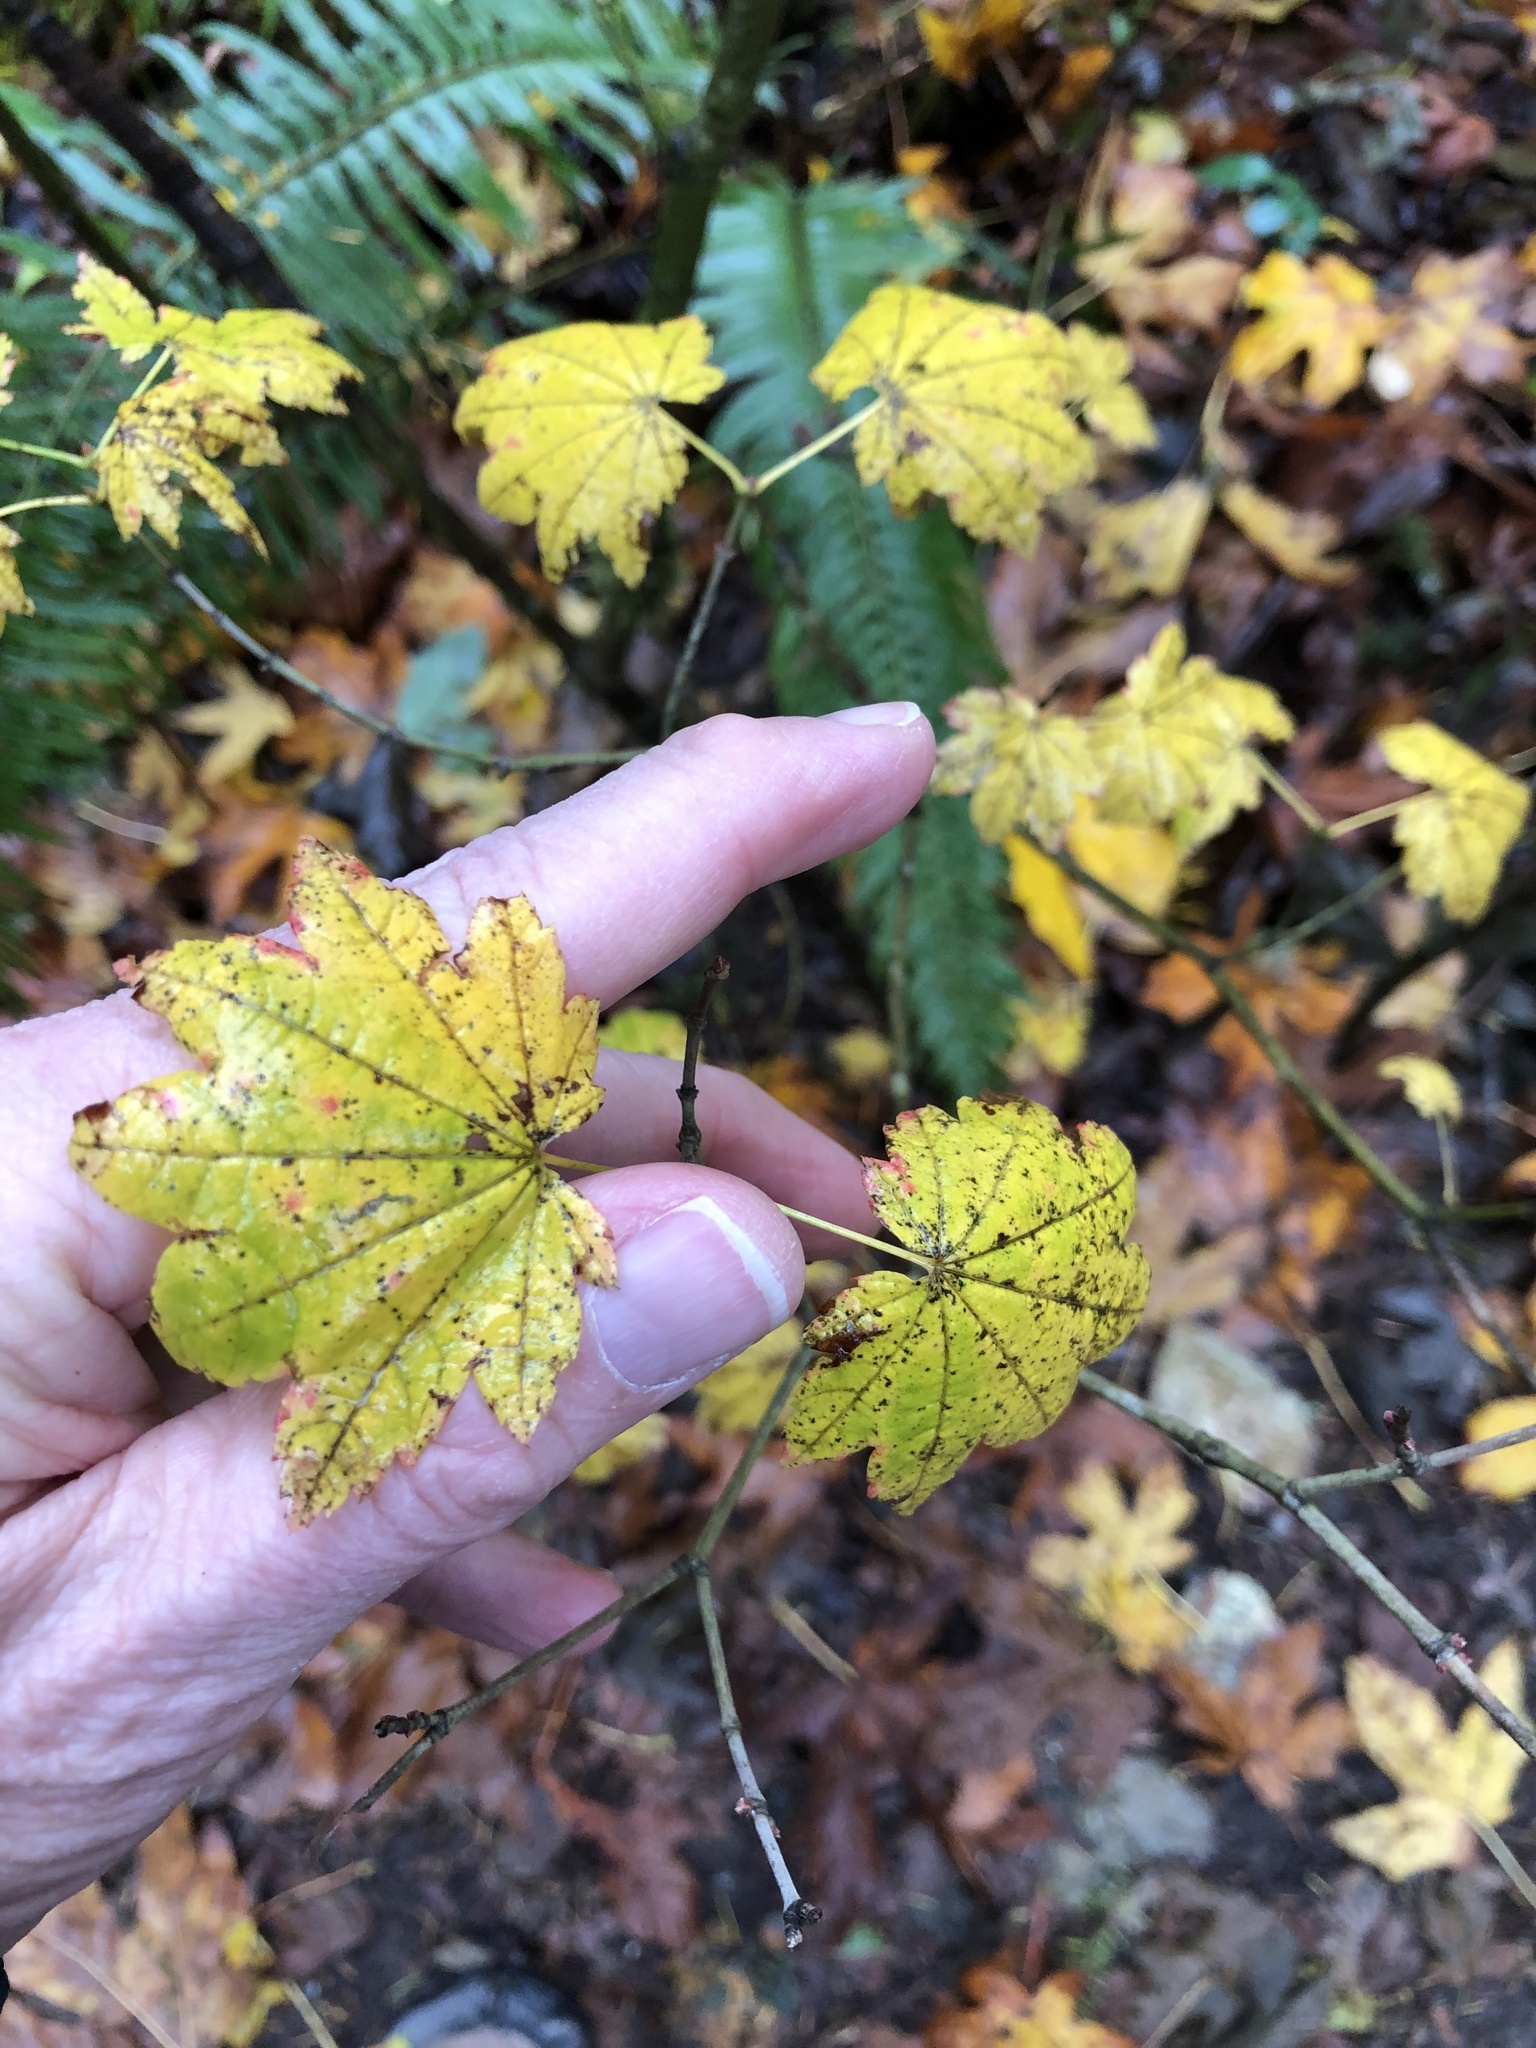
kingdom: Plantae
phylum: Tracheophyta
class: Magnoliopsida
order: Sapindales
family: Sapindaceae
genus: Acer
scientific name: Acer circinatum
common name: Vine maple
